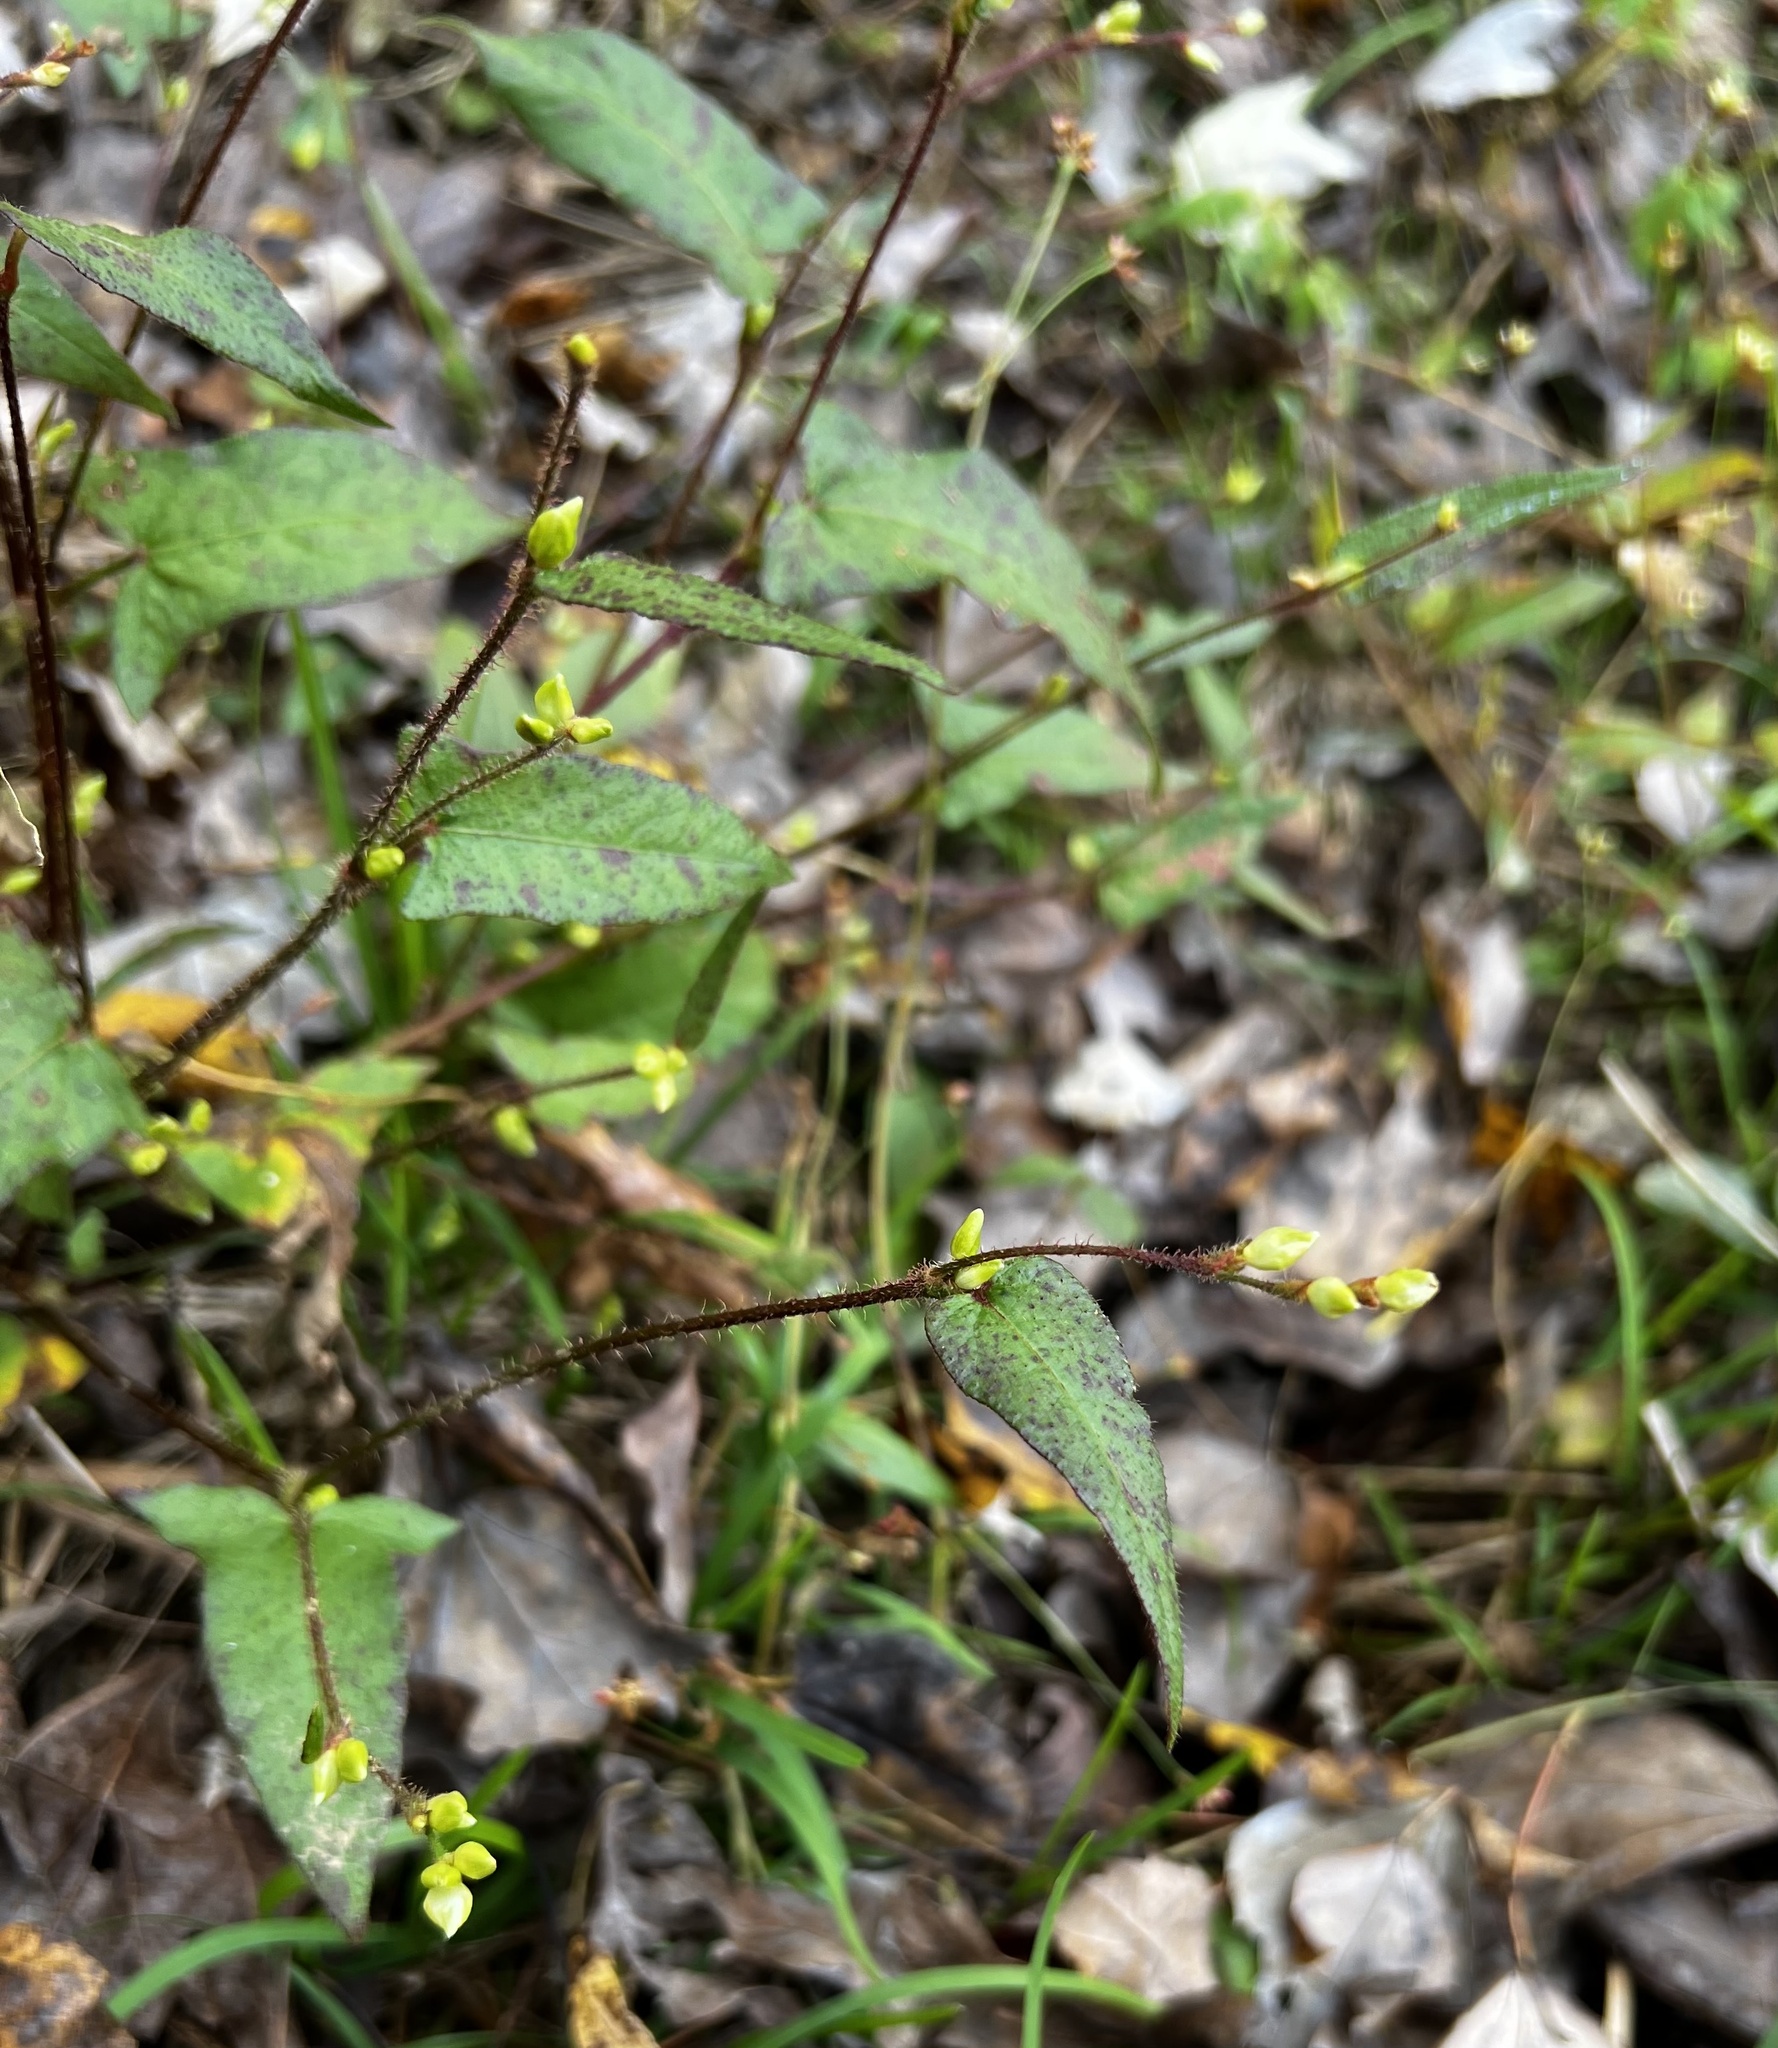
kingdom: Plantae
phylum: Tracheophyta
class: Magnoliopsida
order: Caryophyllales
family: Polygonaceae
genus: Persicaria
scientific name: Persicaria arifolia
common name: Halberd-leaved tear-thumb
